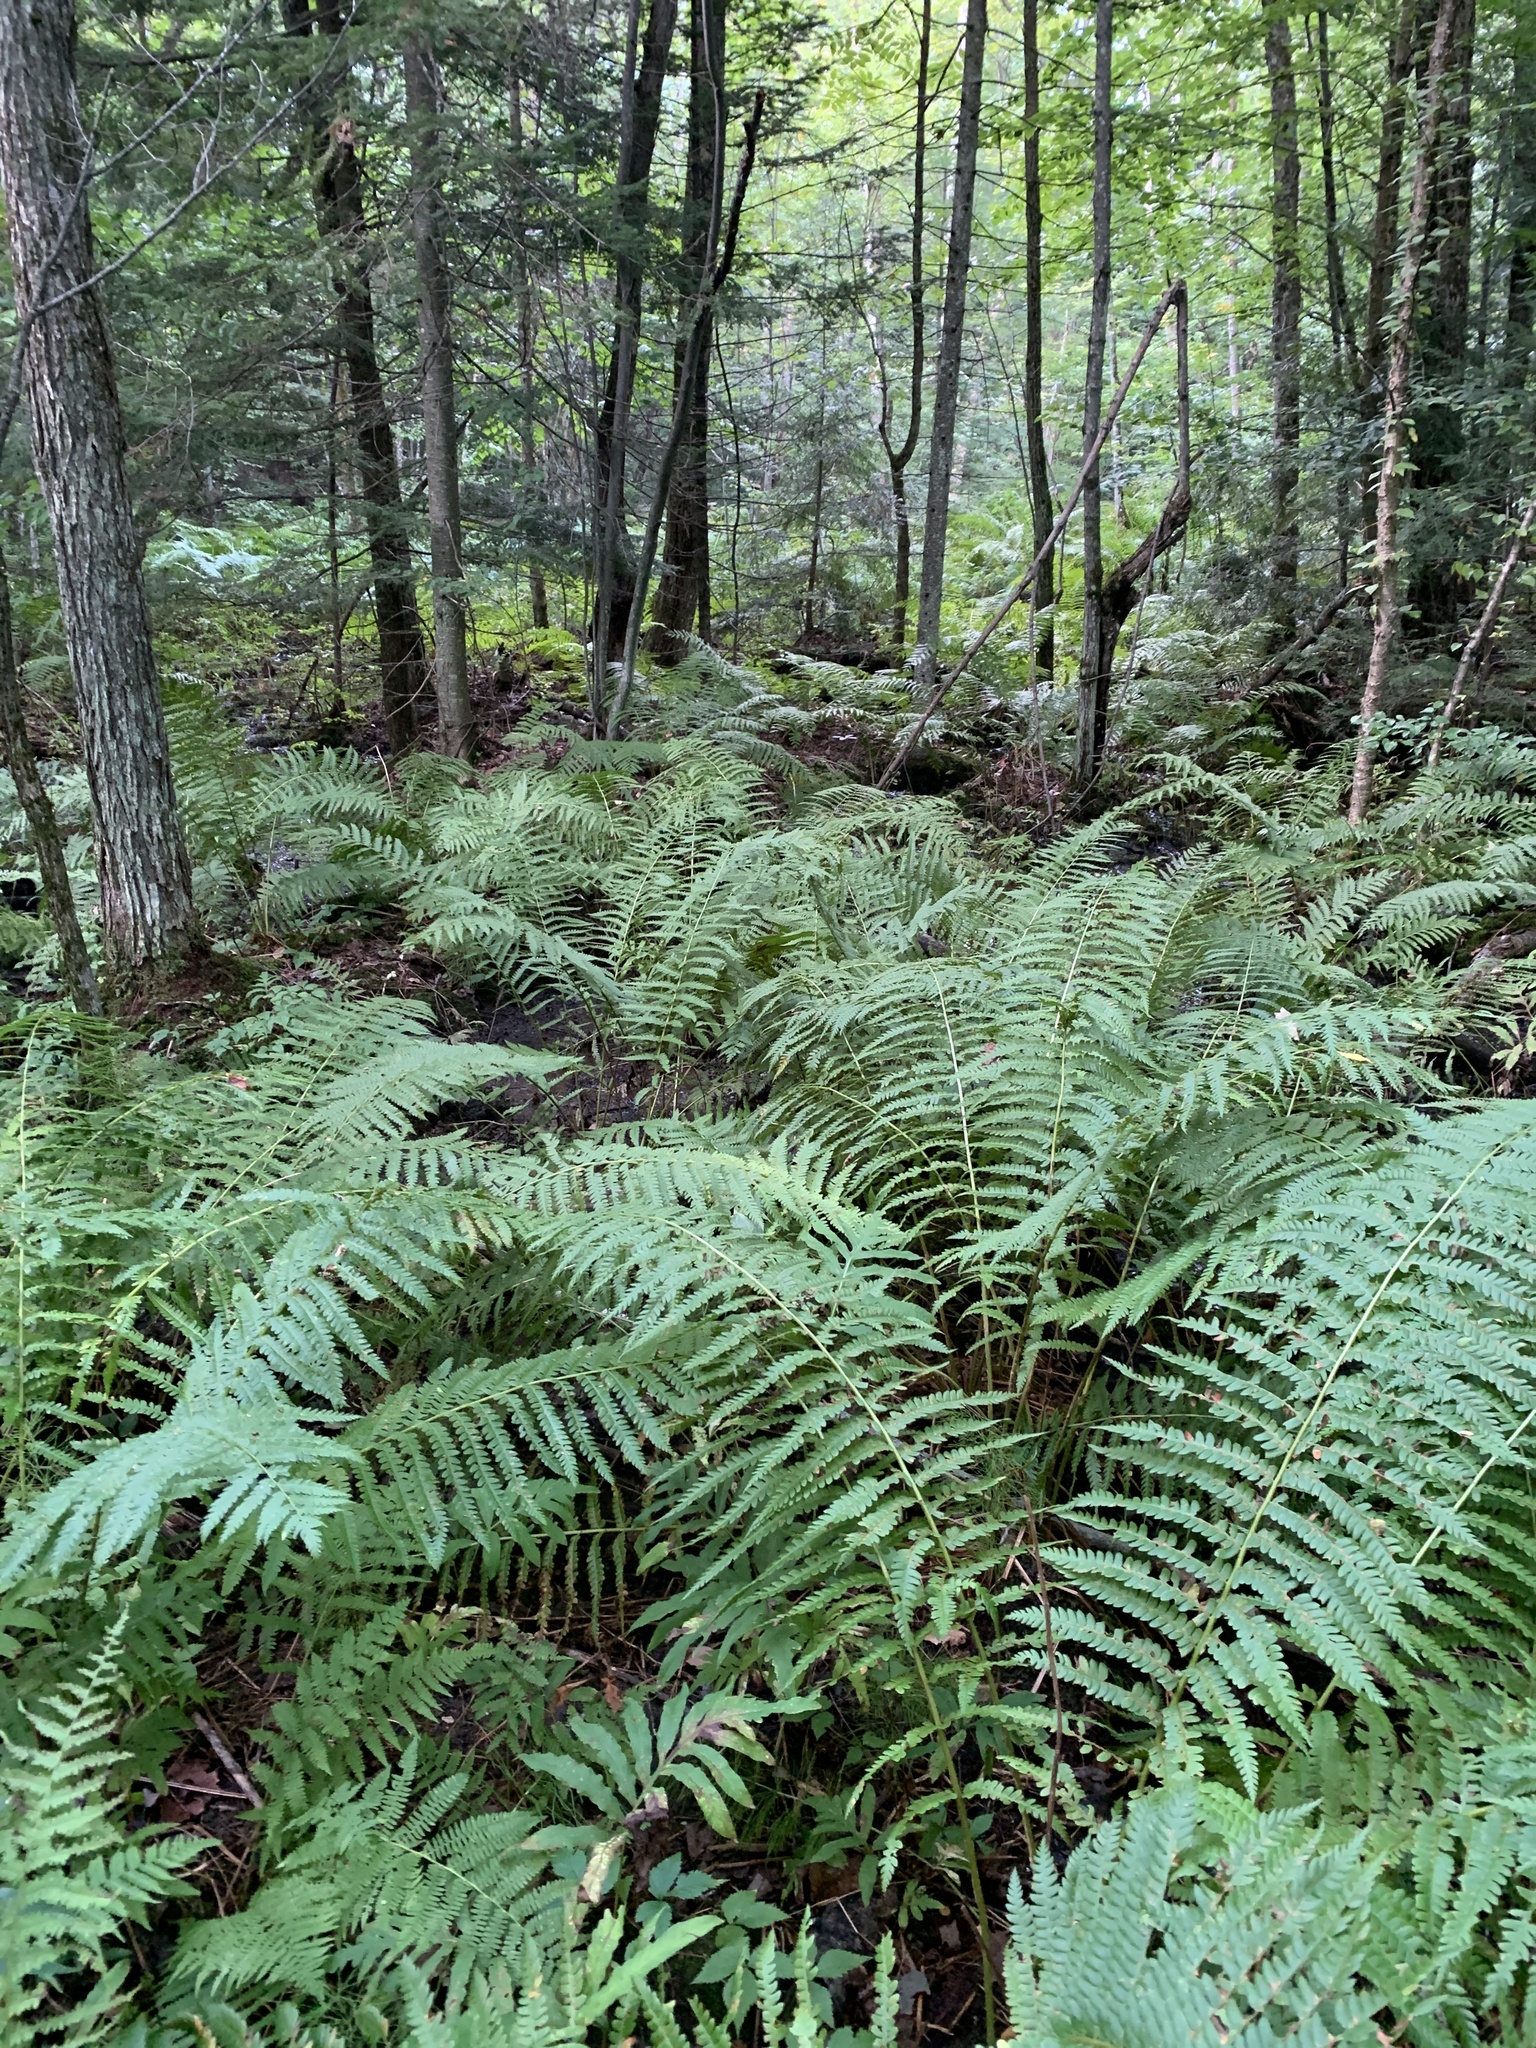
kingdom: Plantae
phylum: Tracheophyta
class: Polypodiopsida
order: Osmundales
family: Osmundaceae
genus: Osmundastrum
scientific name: Osmundastrum cinnamomeum
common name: Cinnamon fern
